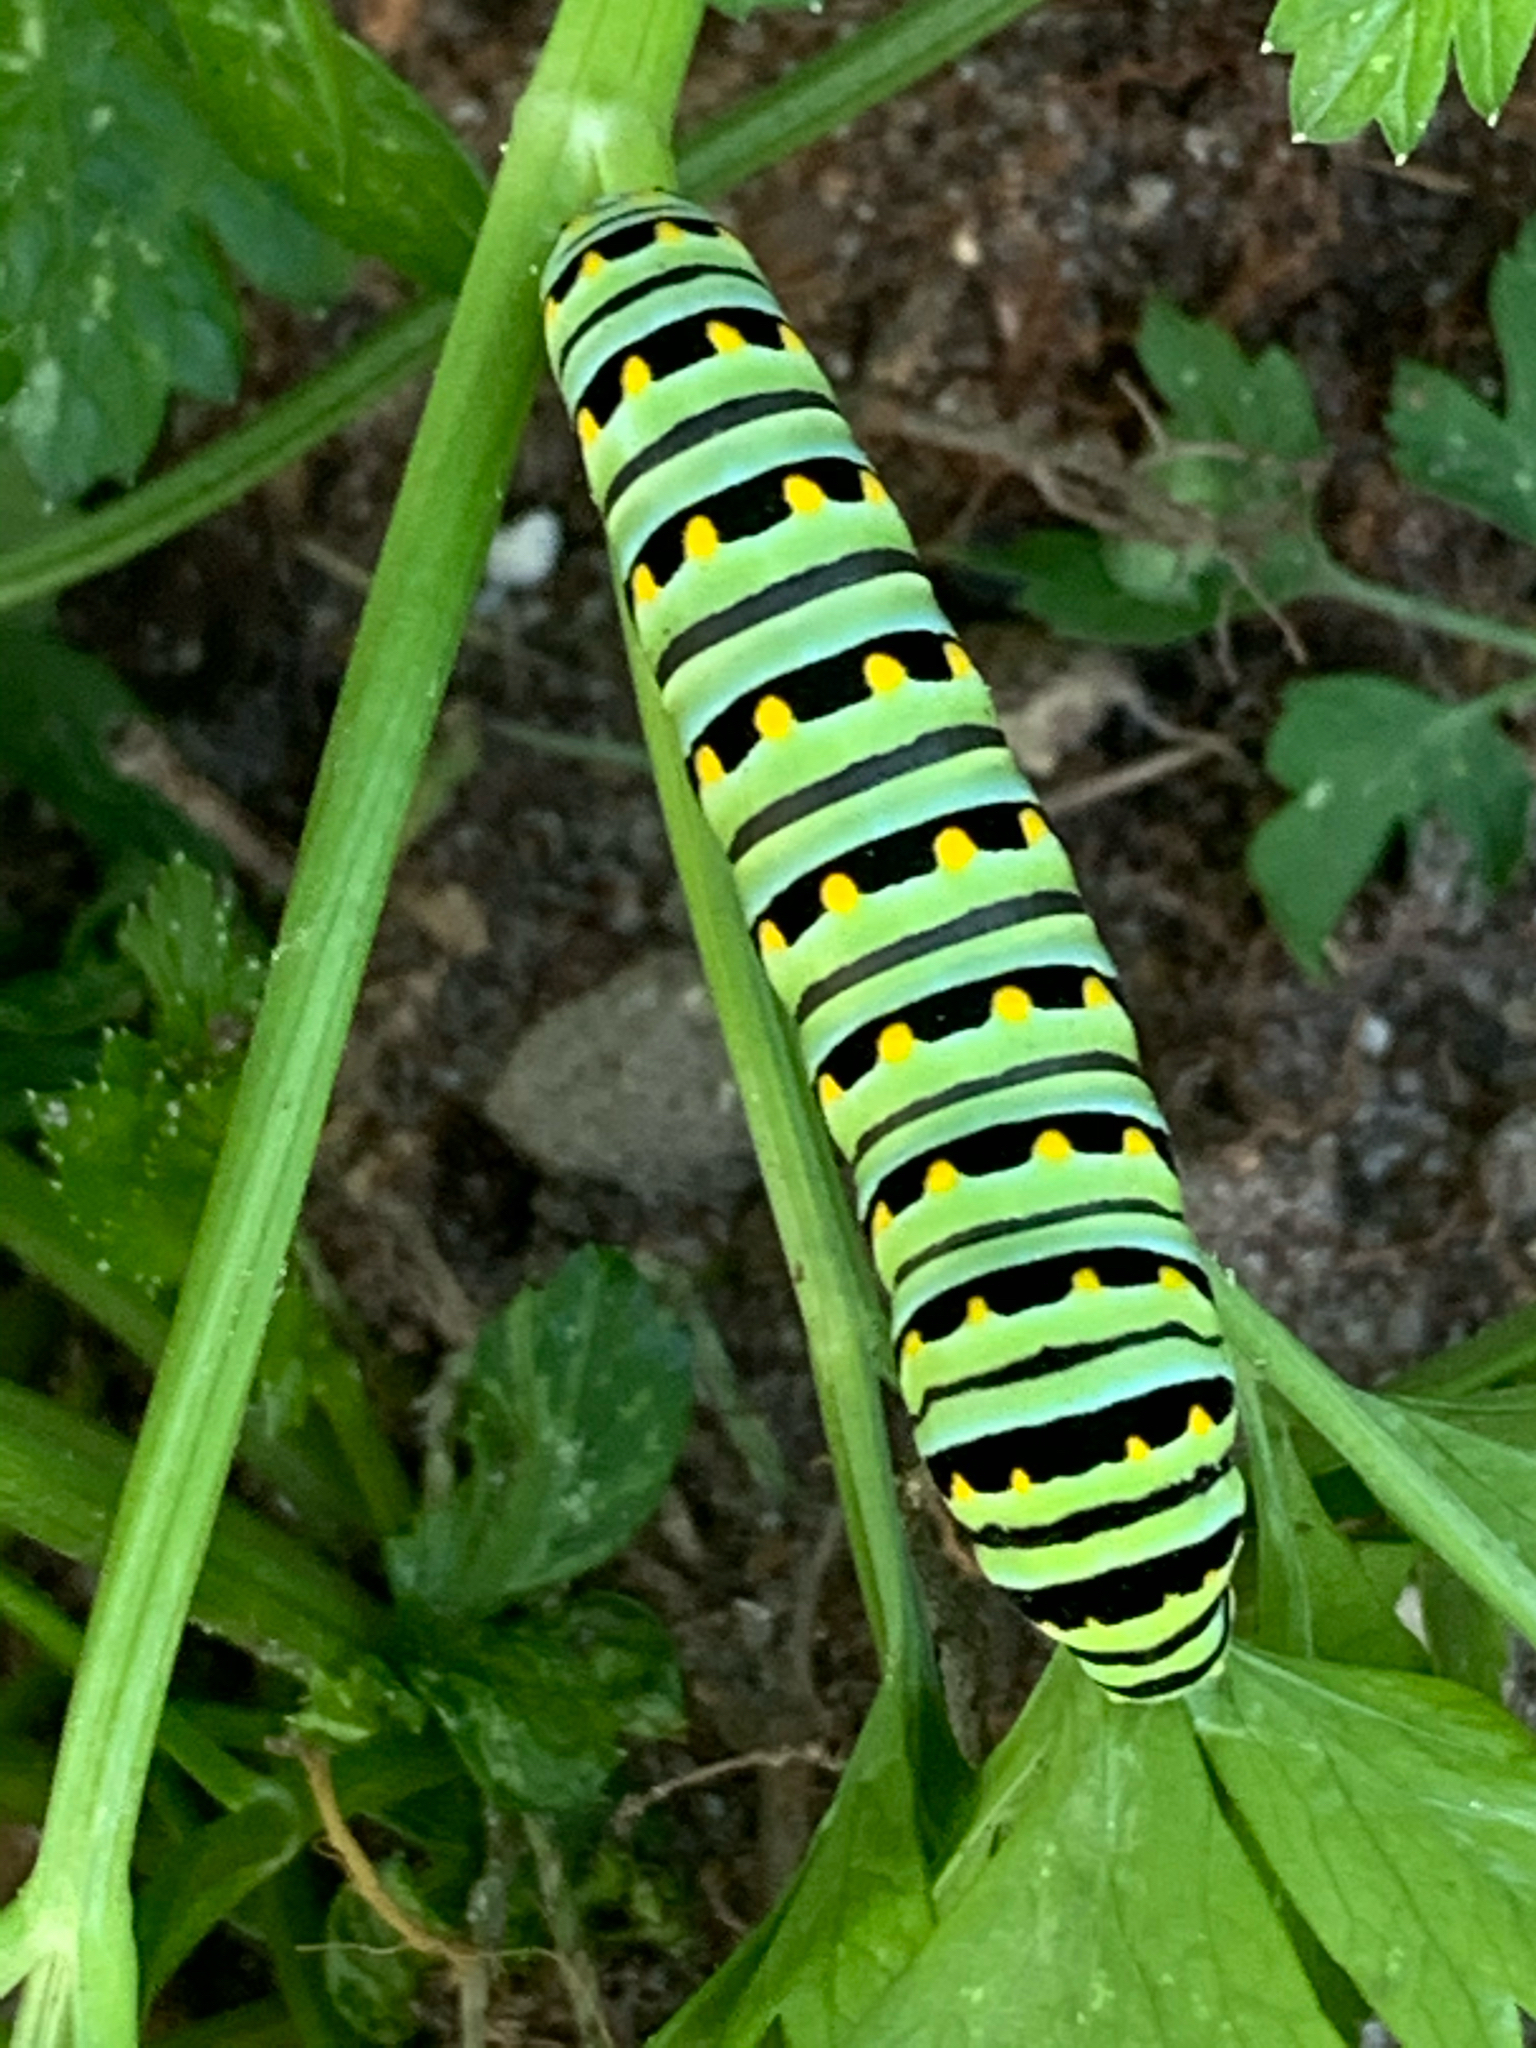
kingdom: Animalia
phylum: Arthropoda
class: Insecta
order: Lepidoptera
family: Papilionidae
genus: Papilio
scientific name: Papilio polyxenes
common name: Black swallowtail
